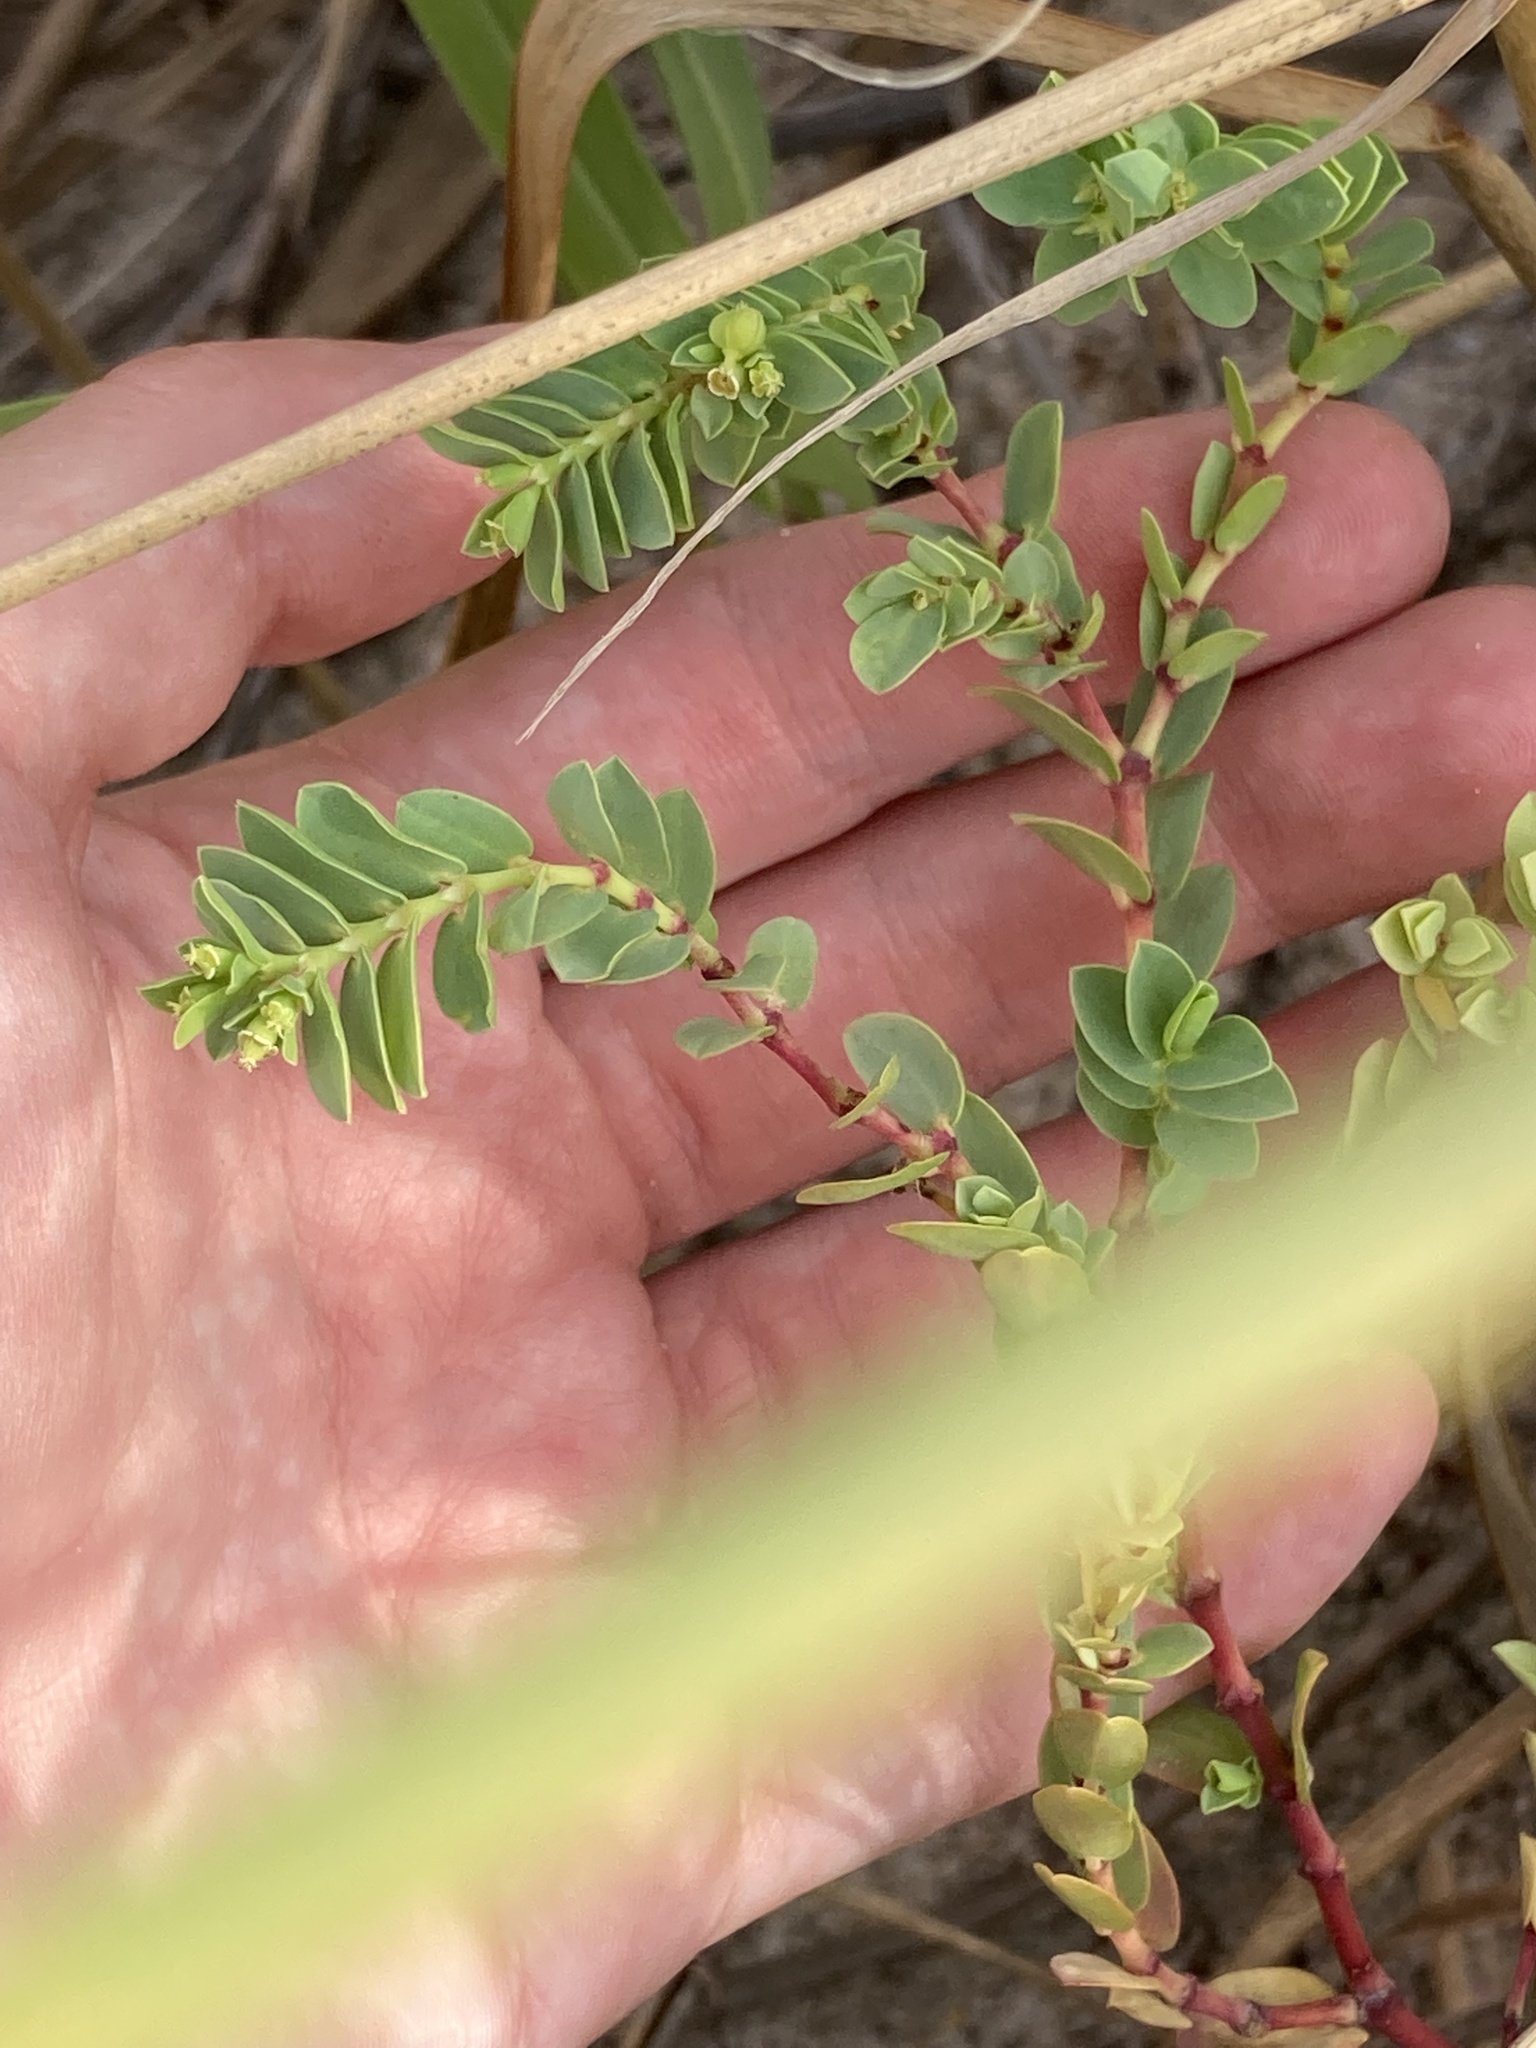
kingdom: Plantae
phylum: Tracheophyta
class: Magnoliopsida
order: Malpighiales
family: Euphorbiaceae
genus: Euphorbia
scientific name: Euphorbia mesembryanthemifolia
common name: Coastal beach sandmat
